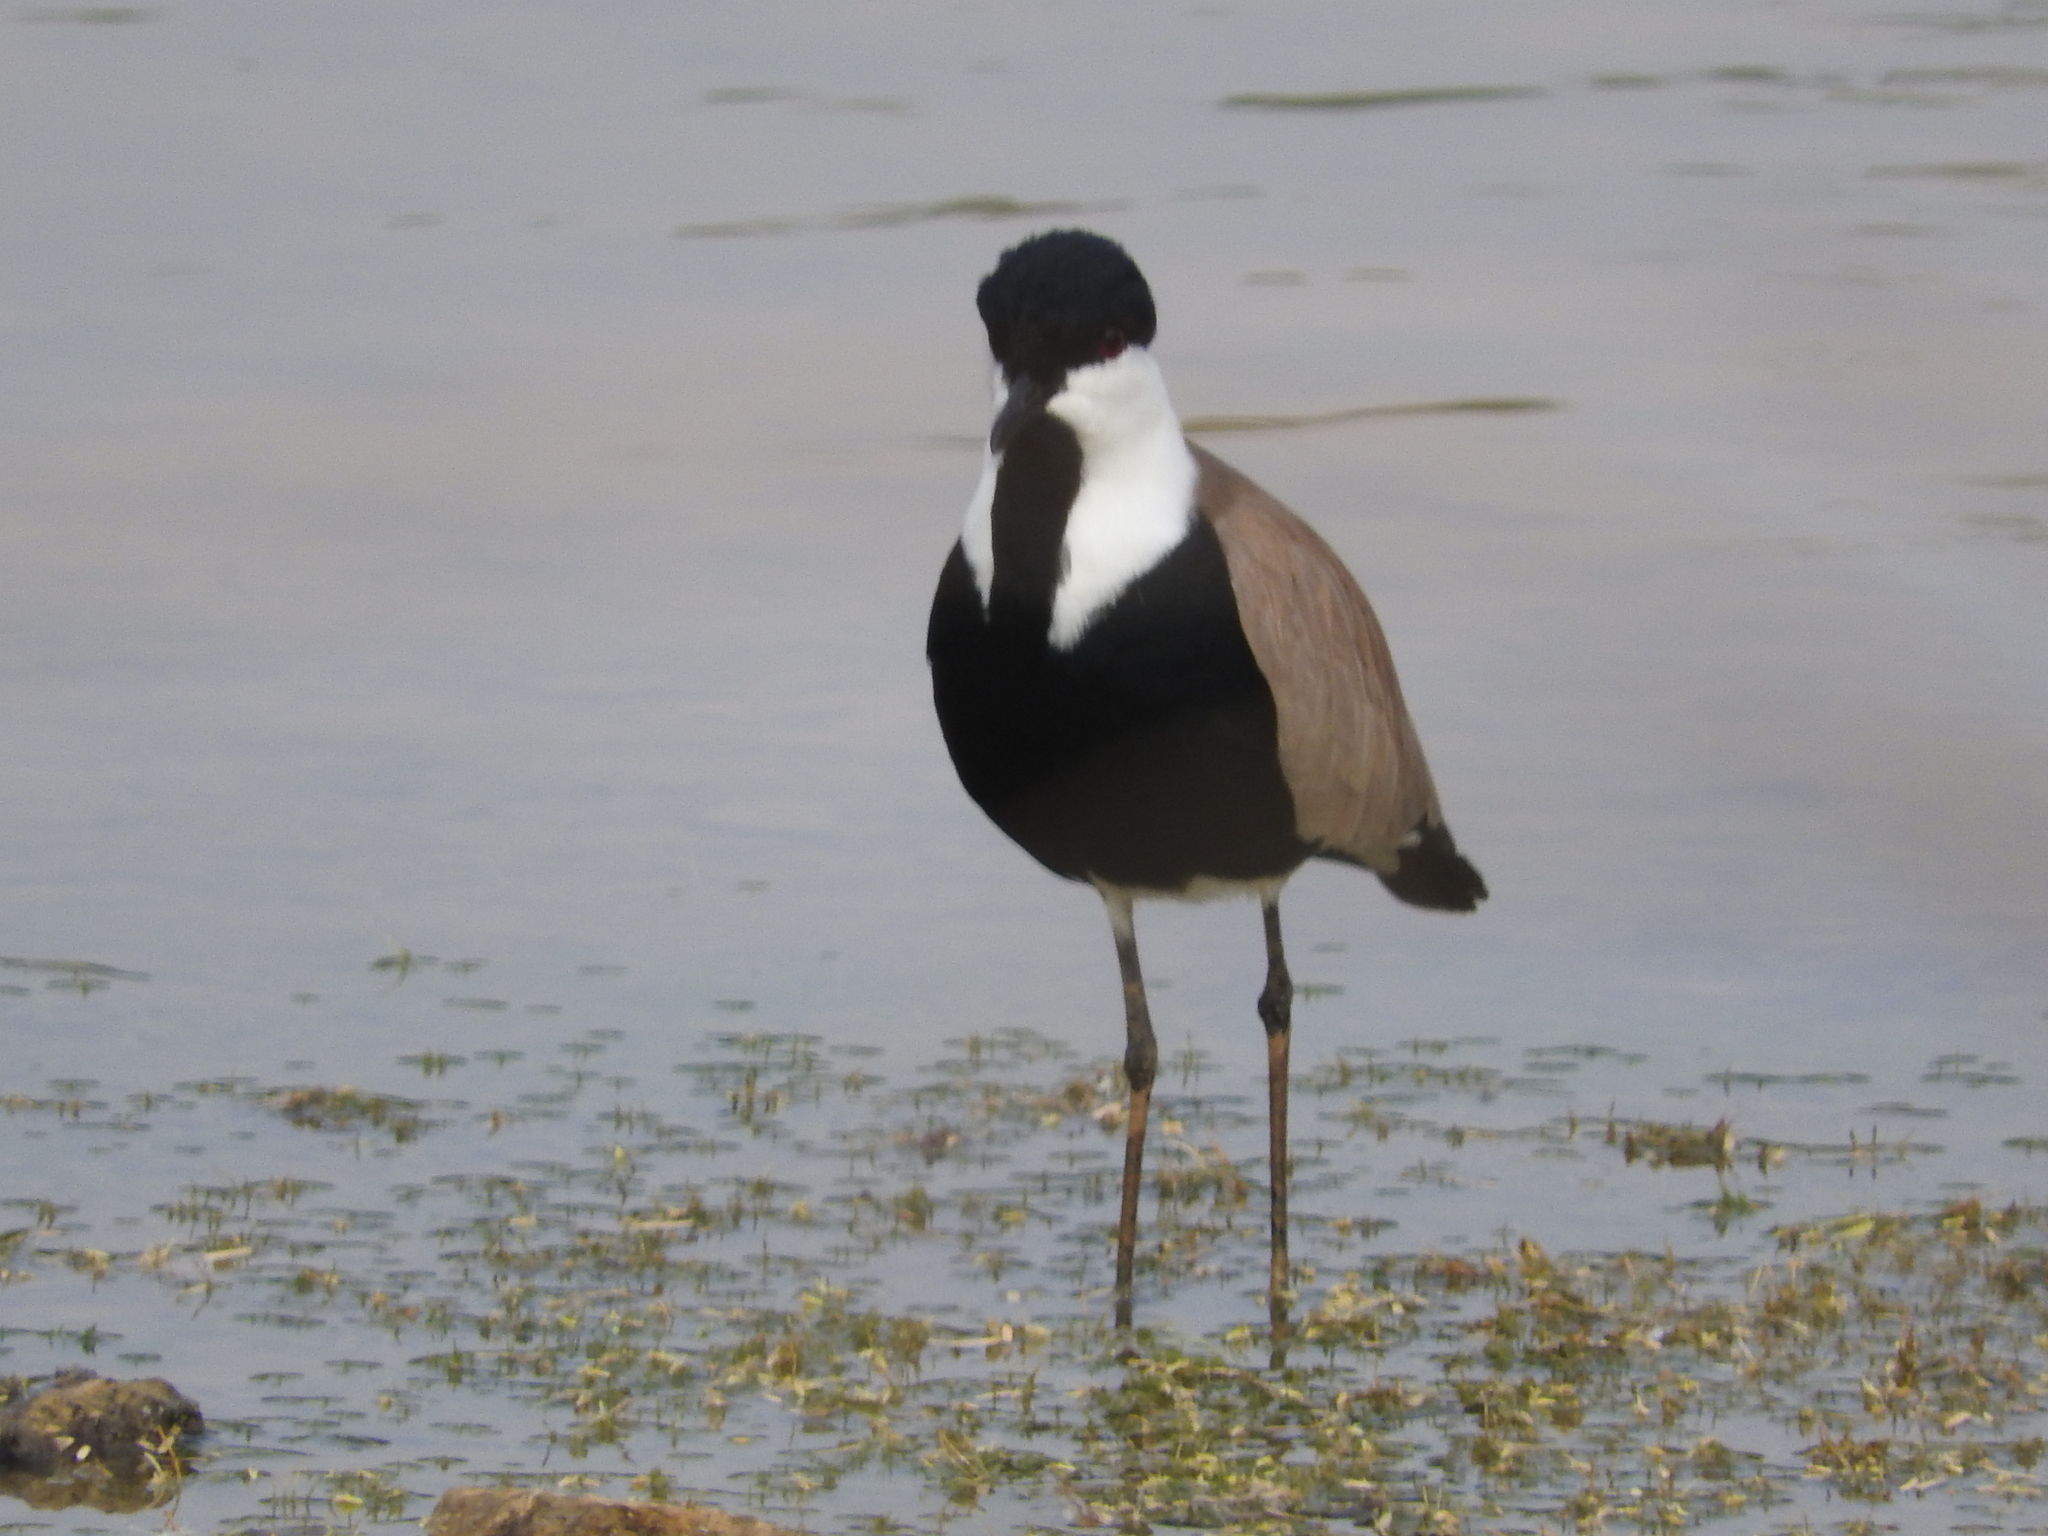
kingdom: Animalia
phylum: Chordata
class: Aves
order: Charadriiformes
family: Charadriidae
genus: Vanellus
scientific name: Vanellus spinosus
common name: Spur-winged lapwing
